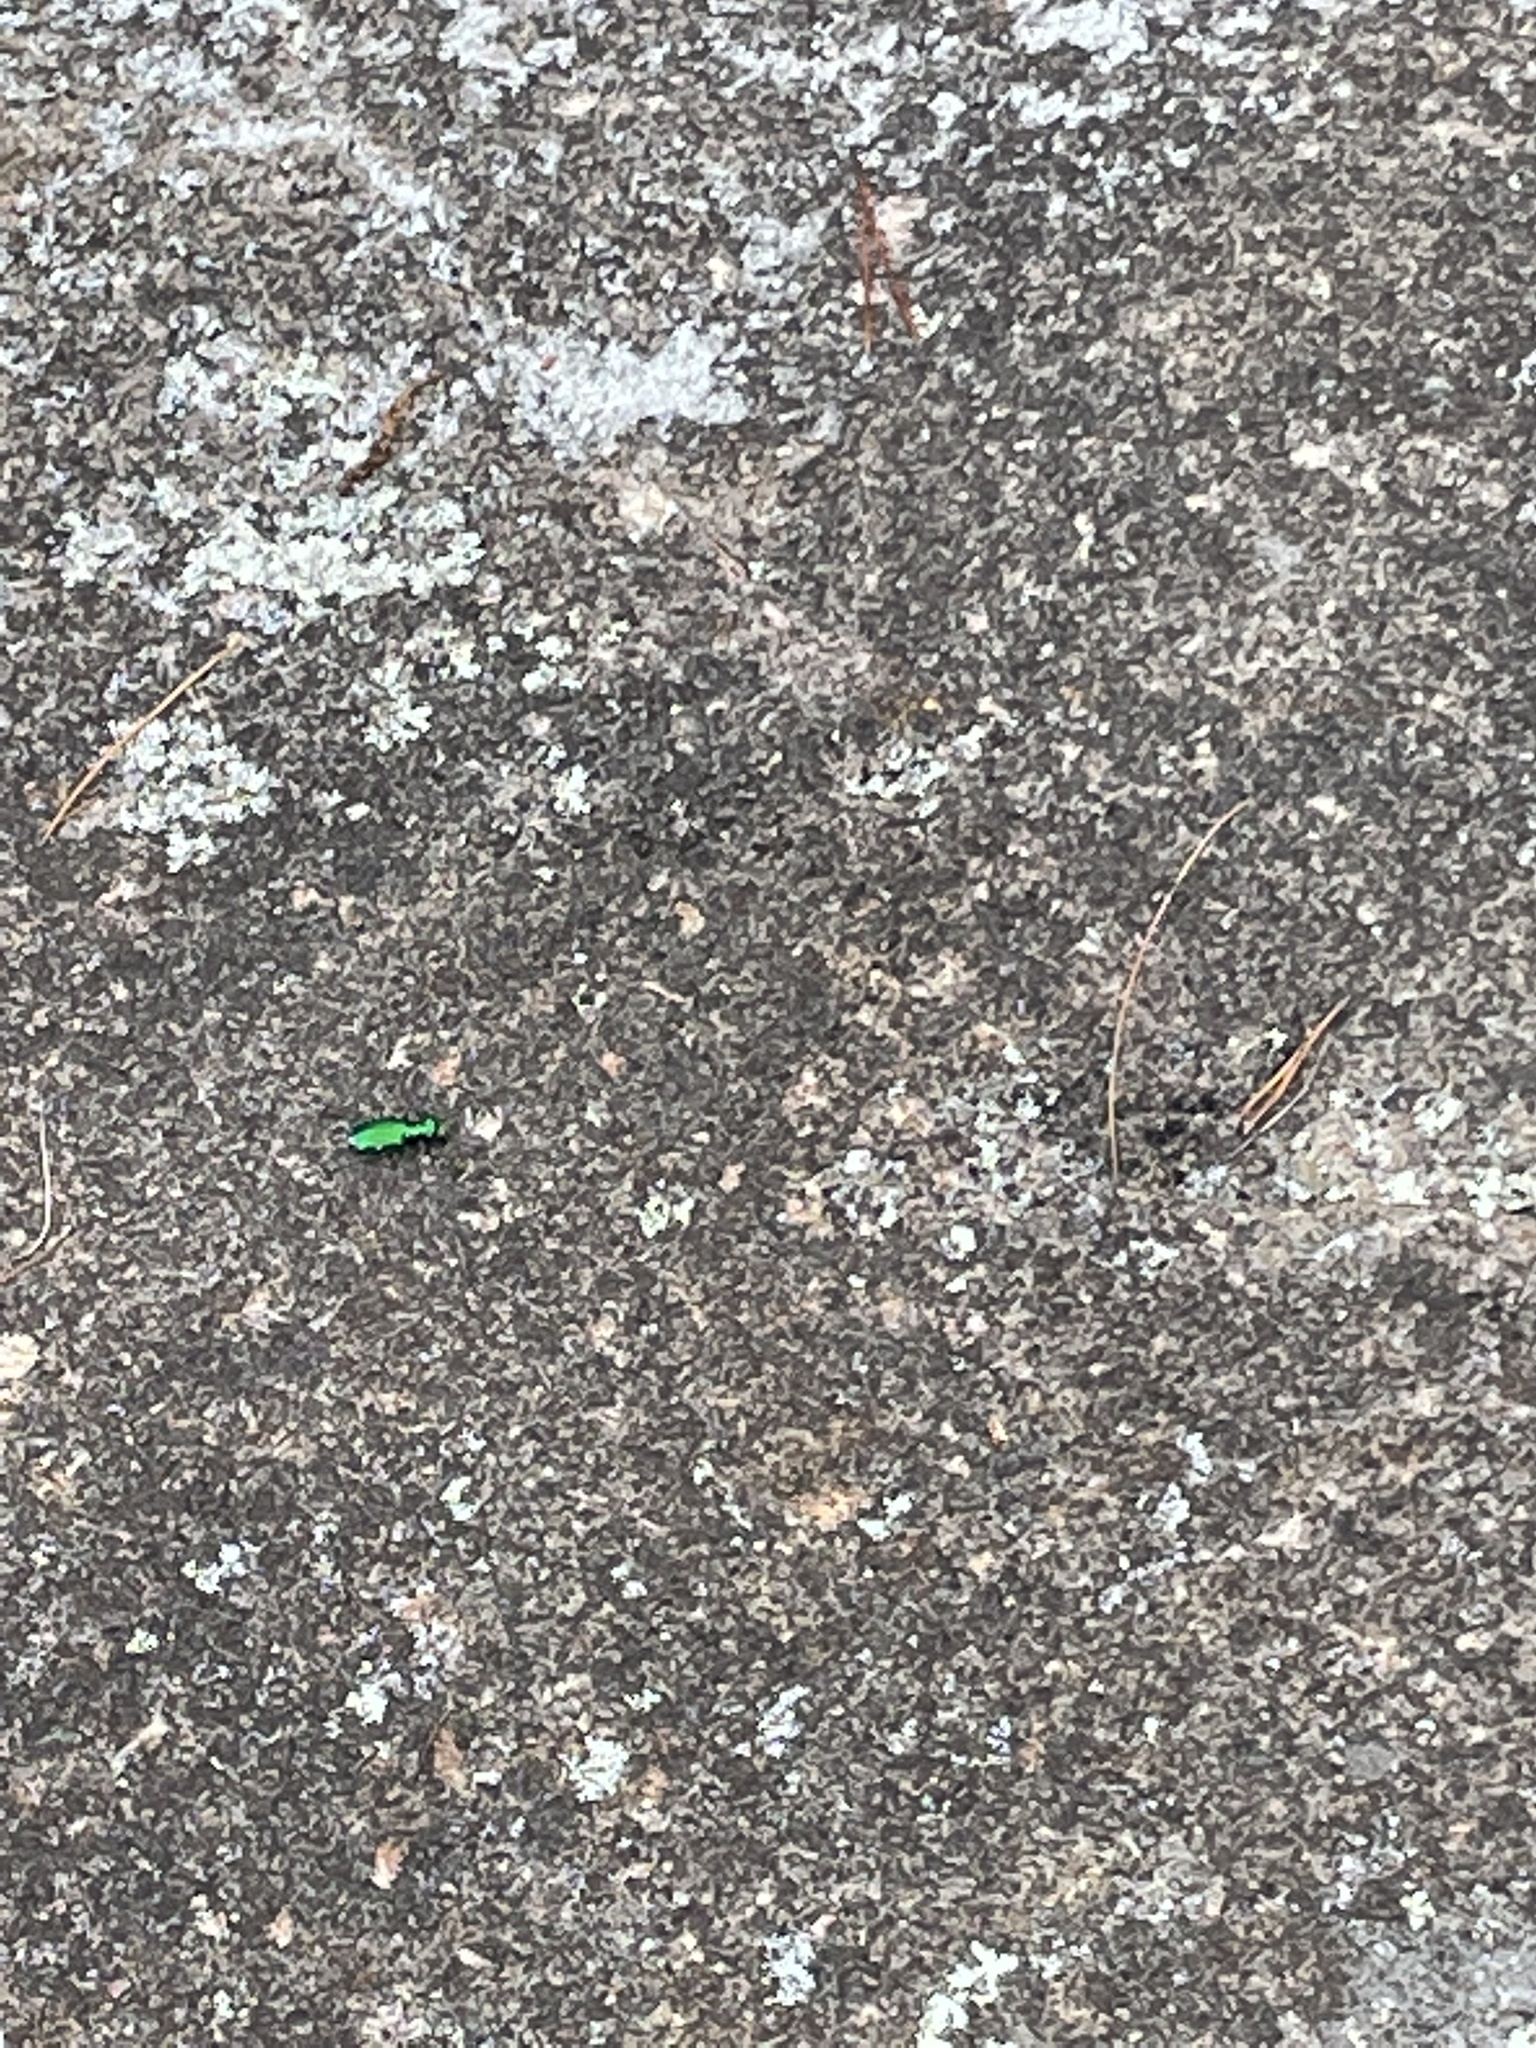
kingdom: Animalia
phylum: Arthropoda
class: Insecta
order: Coleoptera
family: Carabidae
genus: Cicindela
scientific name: Cicindela sexguttata
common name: Six-spotted tiger beetle
